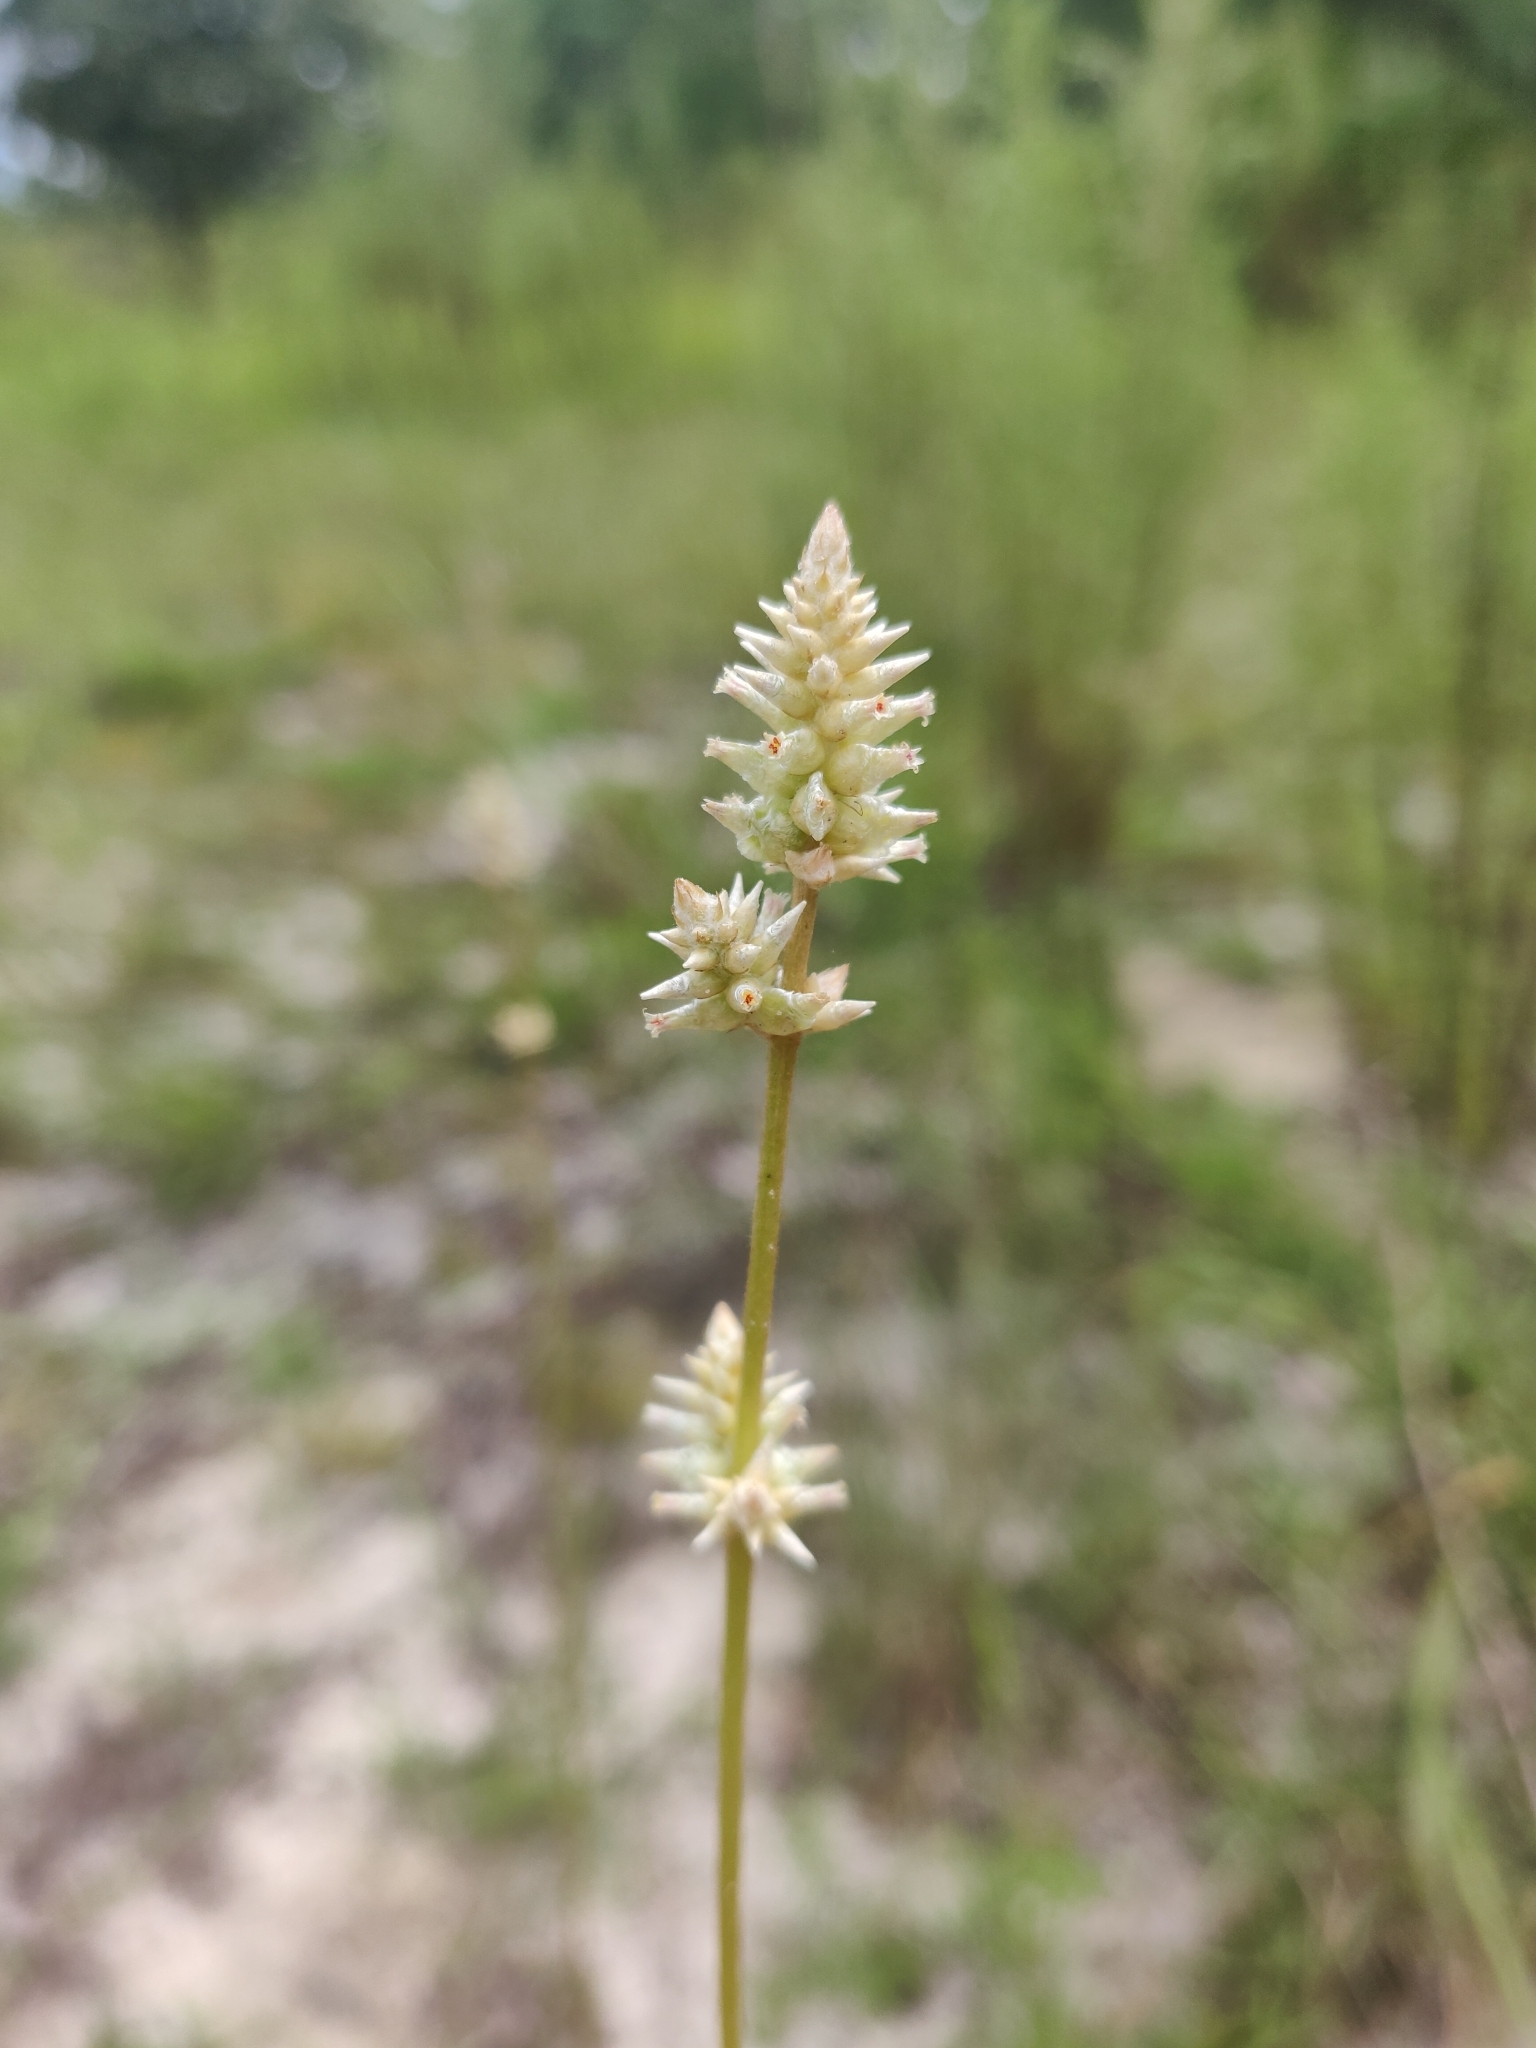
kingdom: Plantae
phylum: Tracheophyta
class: Magnoliopsida
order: Caryophyllales
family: Amaranthaceae
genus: Froelichia
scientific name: Froelichia floridana
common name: Florida snake-cotton
